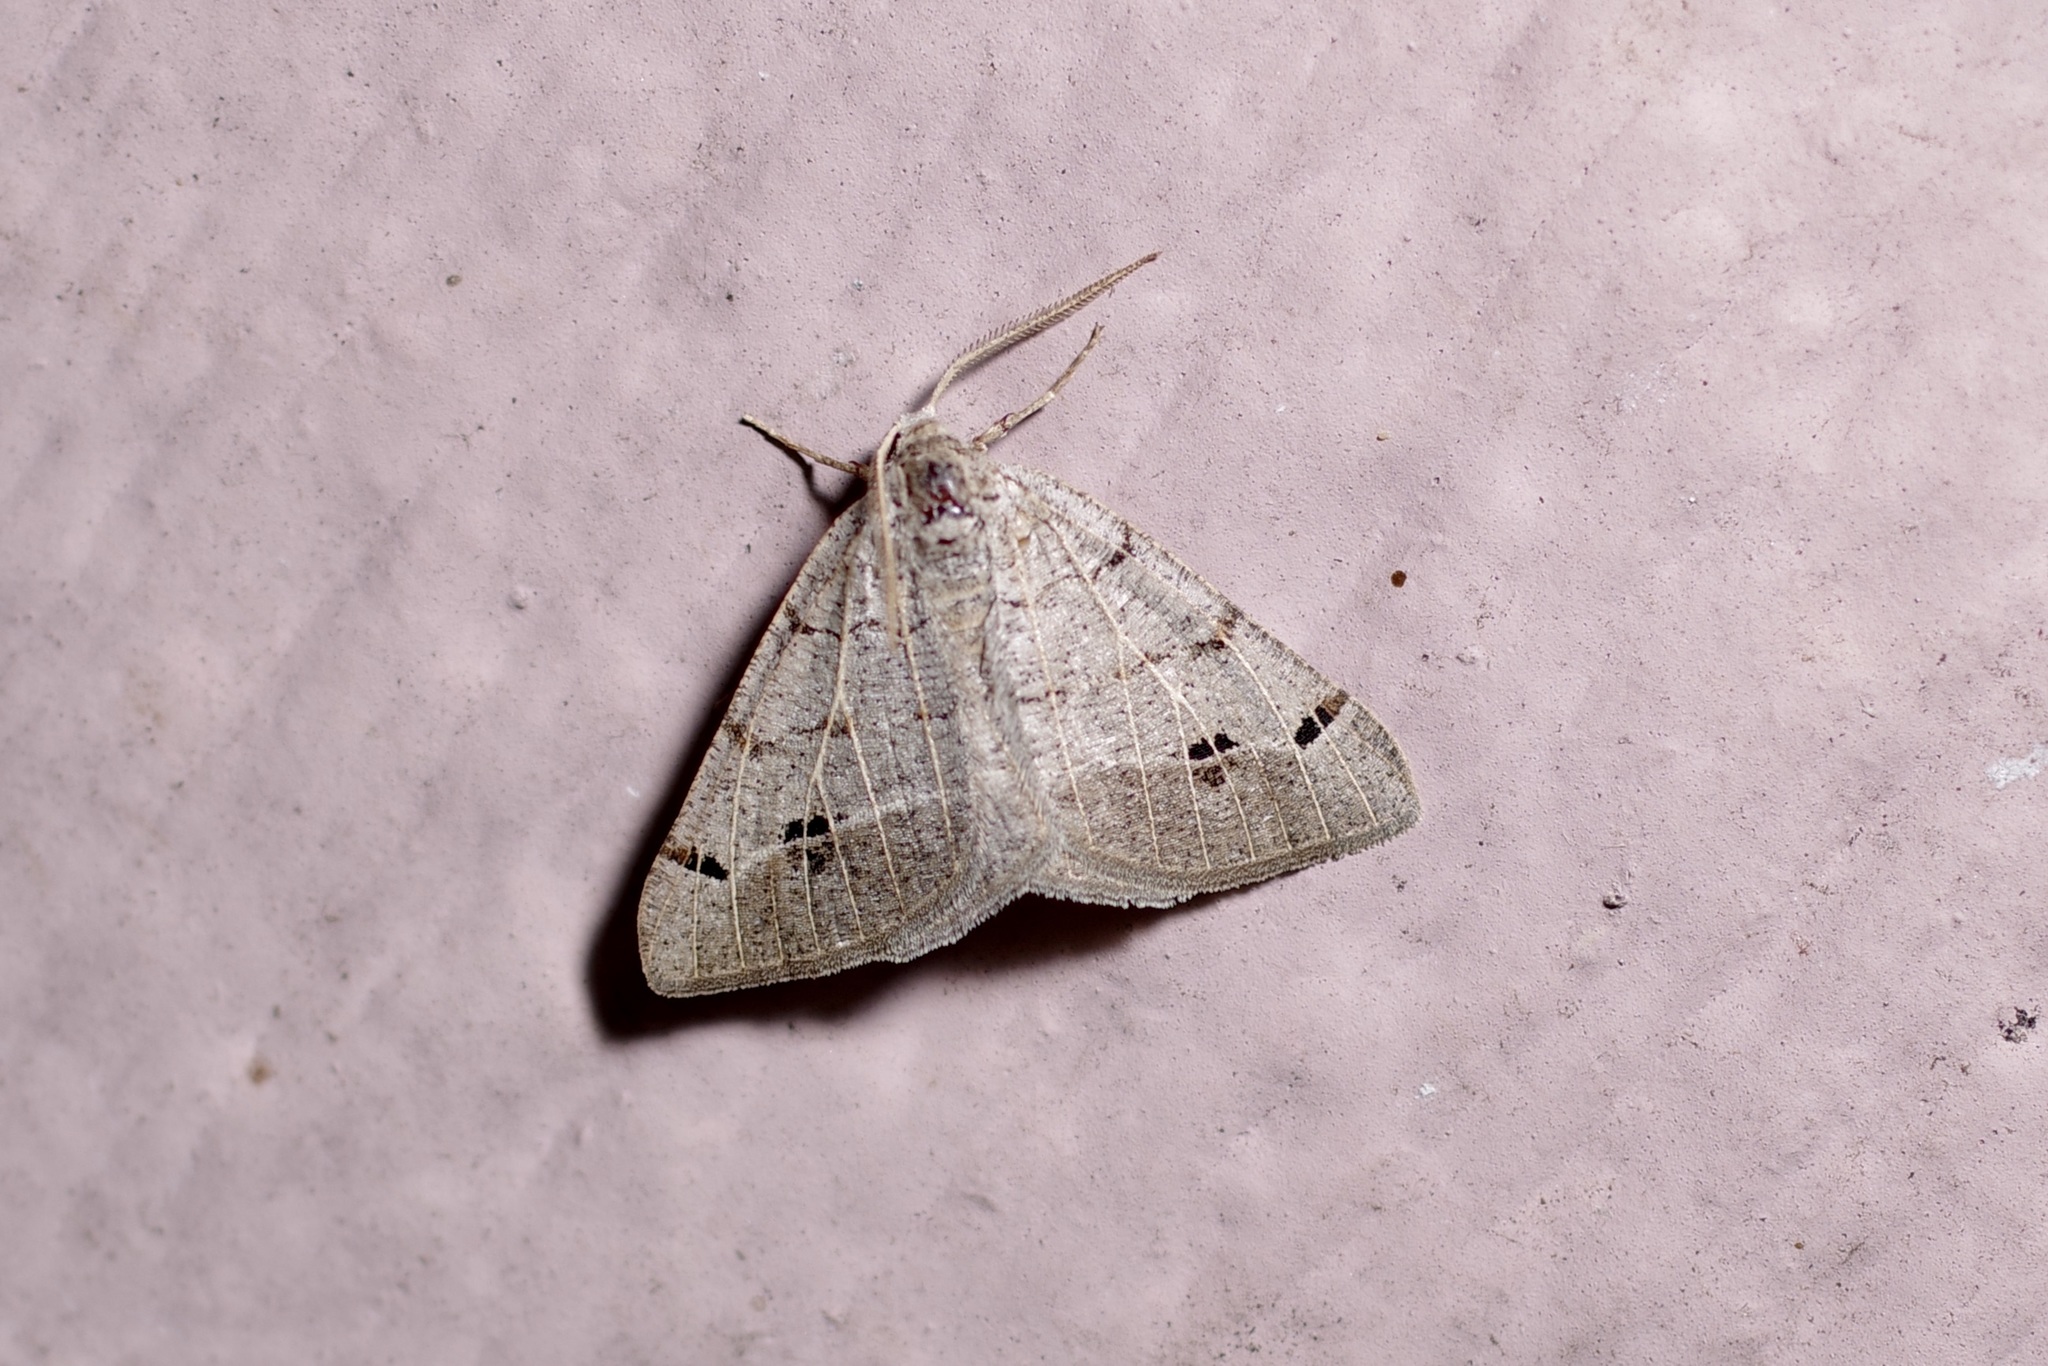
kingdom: Animalia
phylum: Arthropoda
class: Insecta
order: Lepidoptera
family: Geometridae
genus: Isturgia
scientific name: Isturgia dislocaria
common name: Pale-viened enconista
